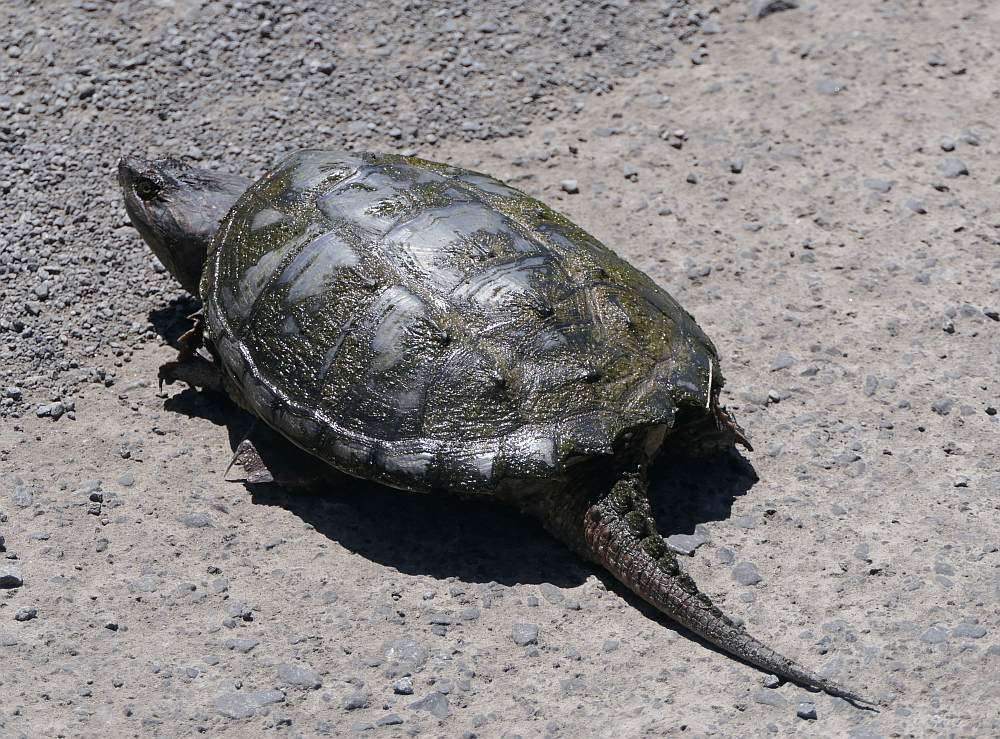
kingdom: Animalia
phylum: Chordata
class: Testudines
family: Chelydridae
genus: Chelydra
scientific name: Chelydra serpentina
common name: Common snapping turtle
